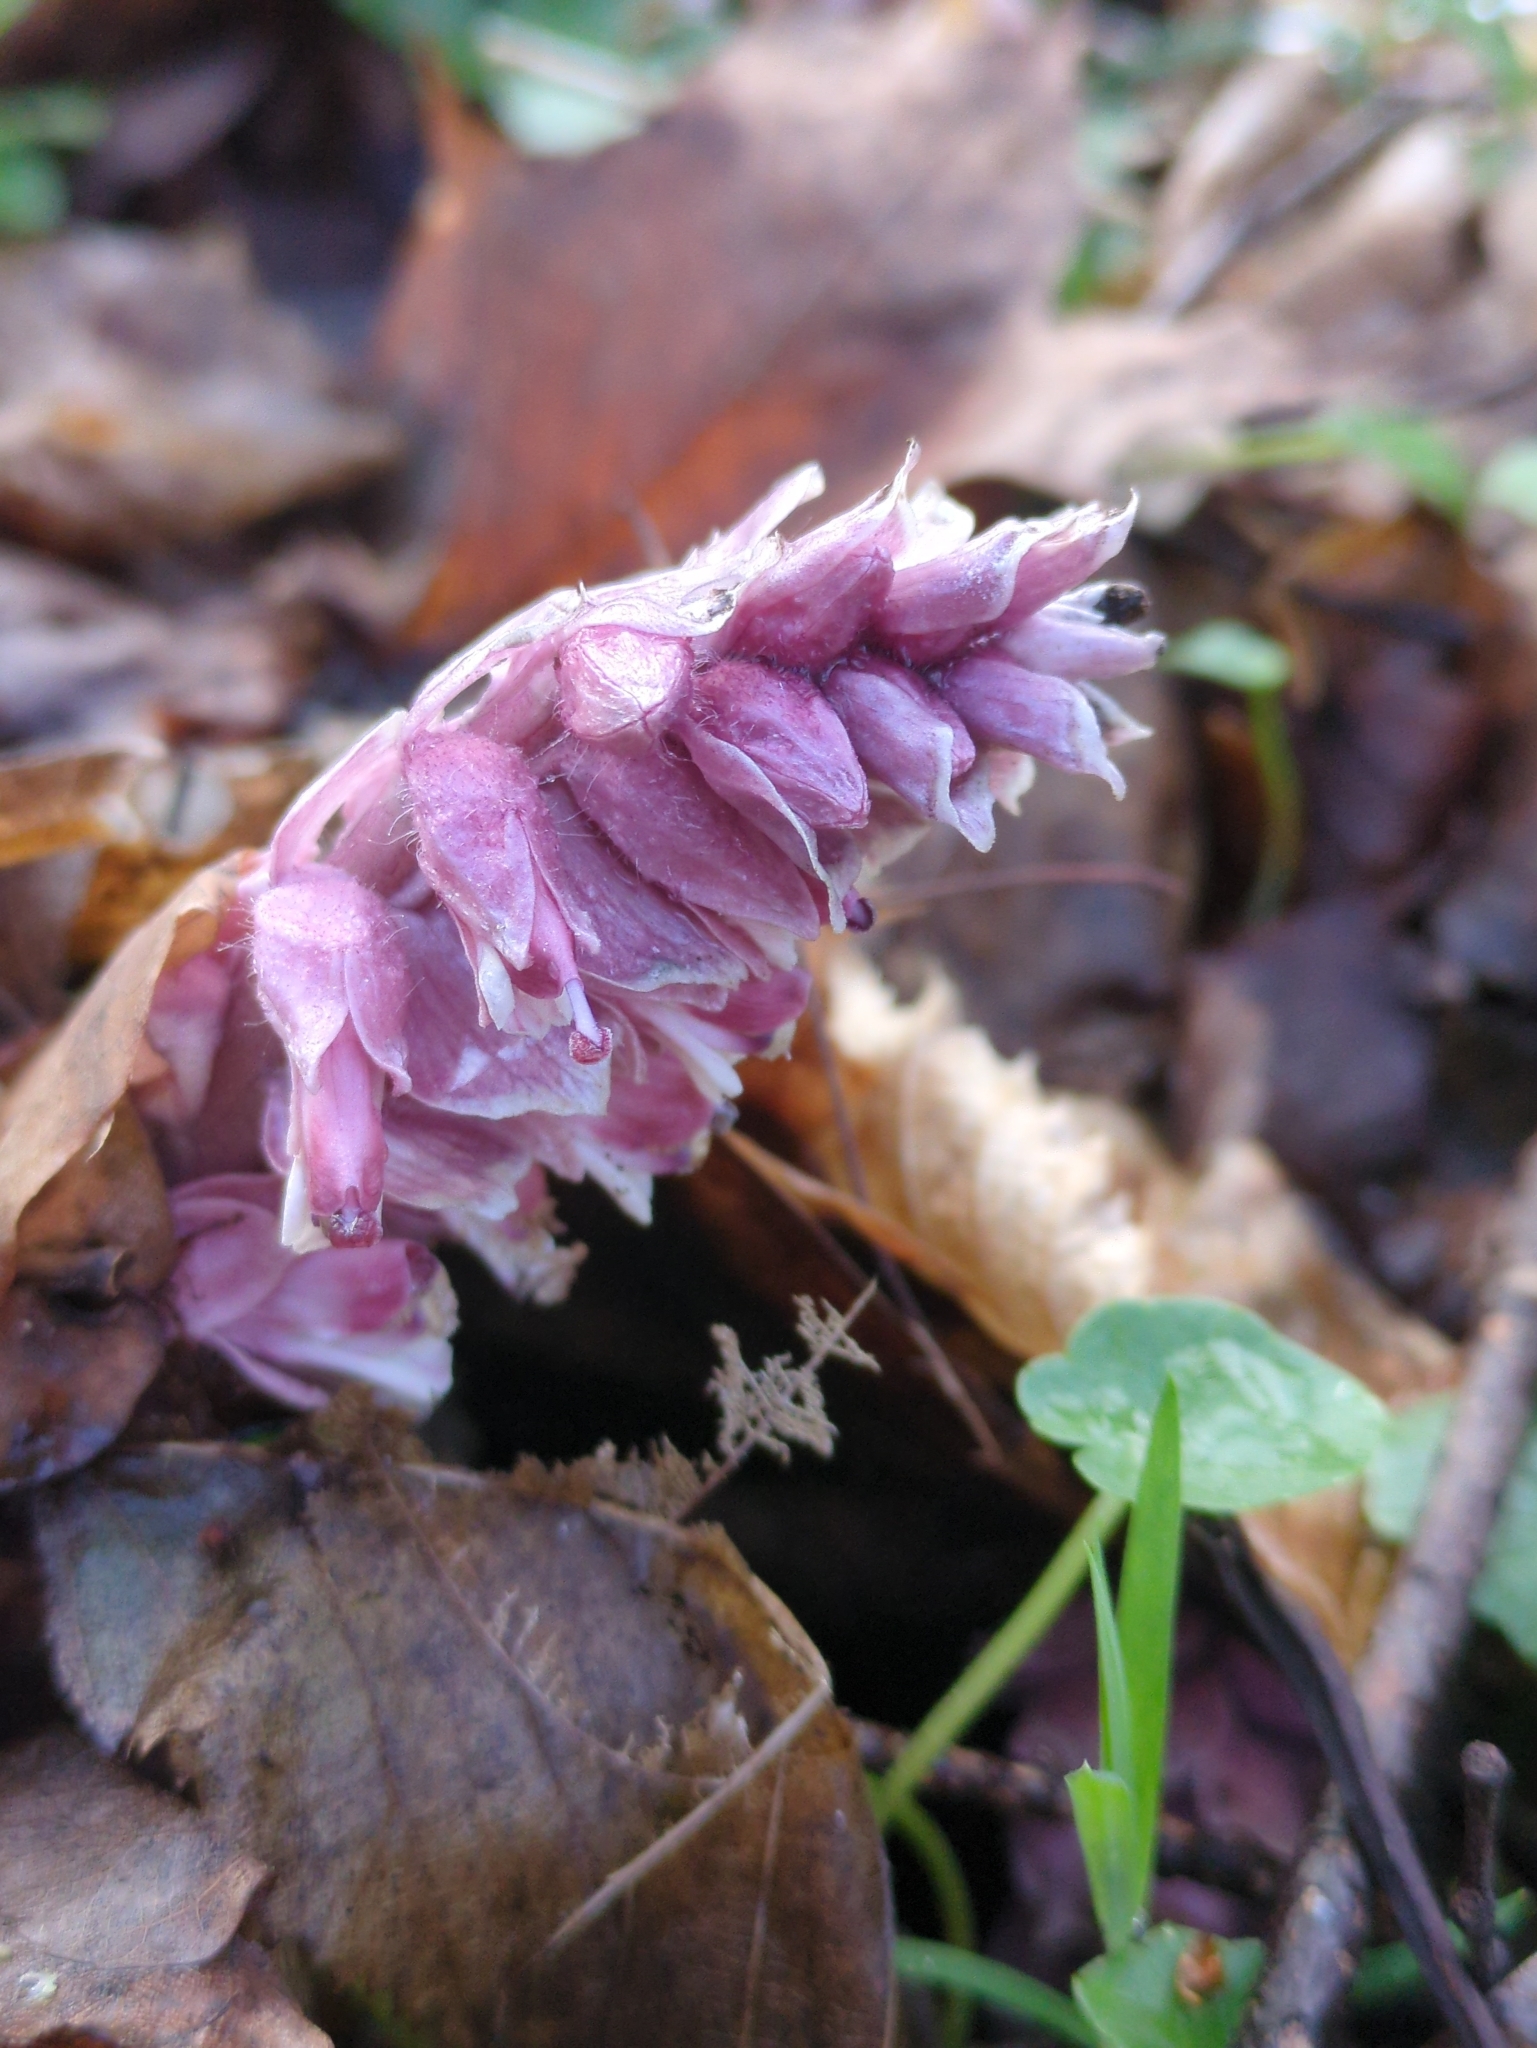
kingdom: Plantae
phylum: Tracheophyta
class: Magnoliopsida
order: Lamiales
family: Orobanchaceae
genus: Lathraea
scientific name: Lathraea squamaria
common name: Toothwort
